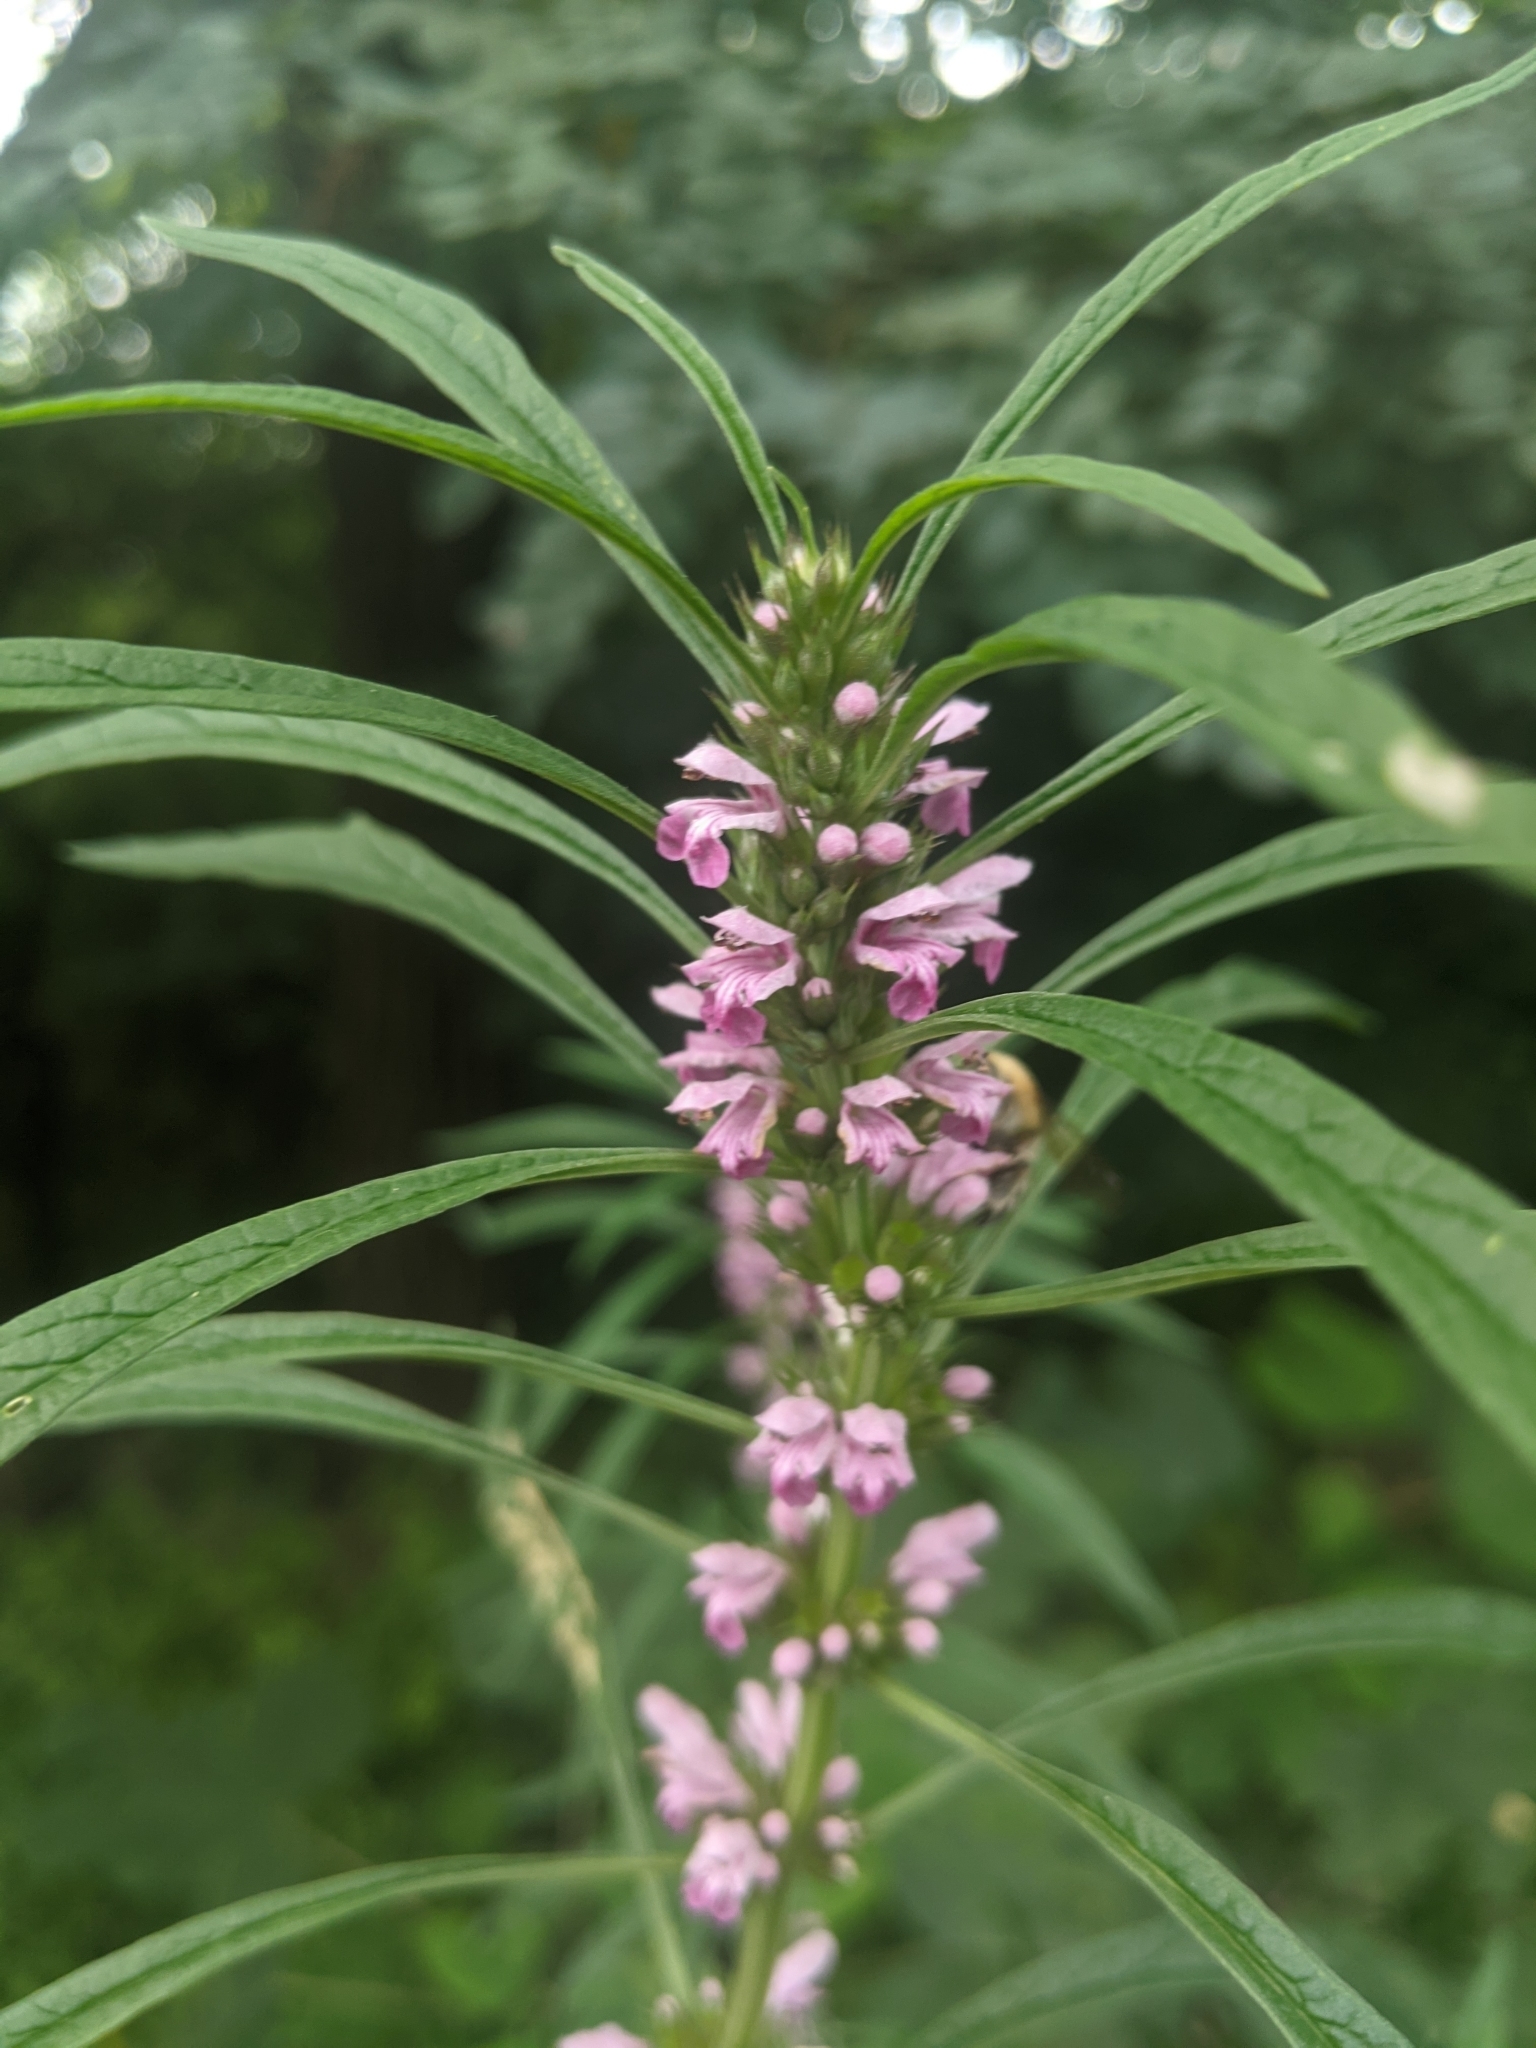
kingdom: Plantae
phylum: Tracheophyta
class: Magnoliopsida
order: Lamiales
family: Lamiaceae
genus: Leonurus
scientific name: Leonurus sibiricus
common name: Honeyweed
